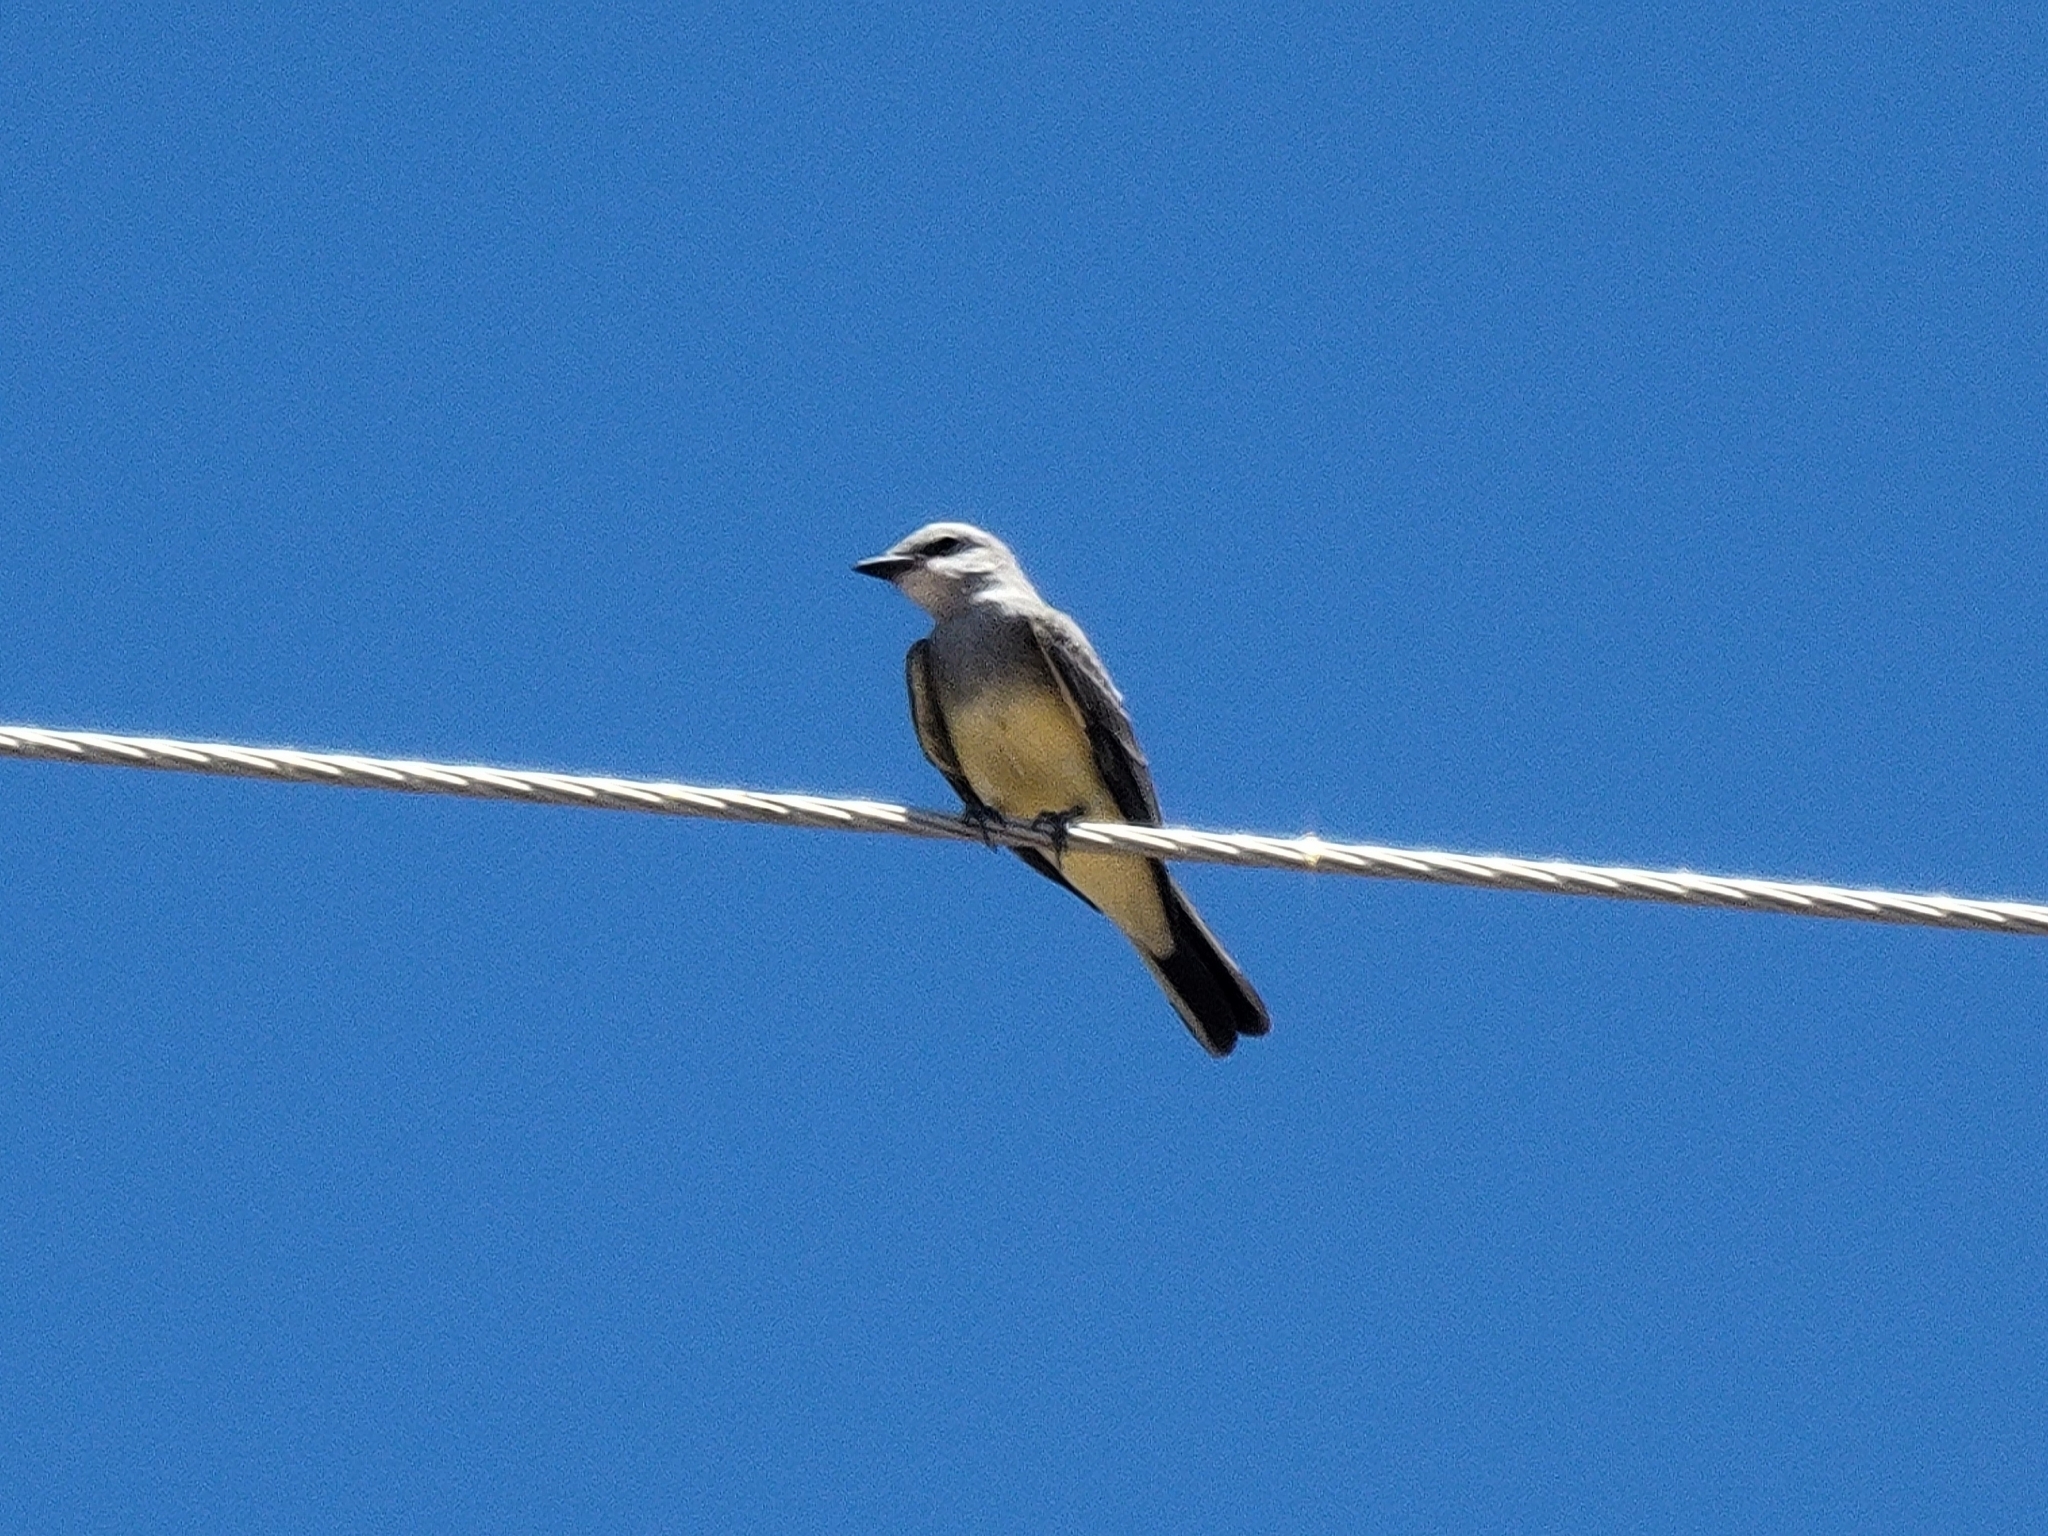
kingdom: Animalia
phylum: Chordata
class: Aves
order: Passeriformes
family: Tyrannidae
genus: Tyrannus
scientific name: Tyrannus verticalis
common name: Western kingbird
